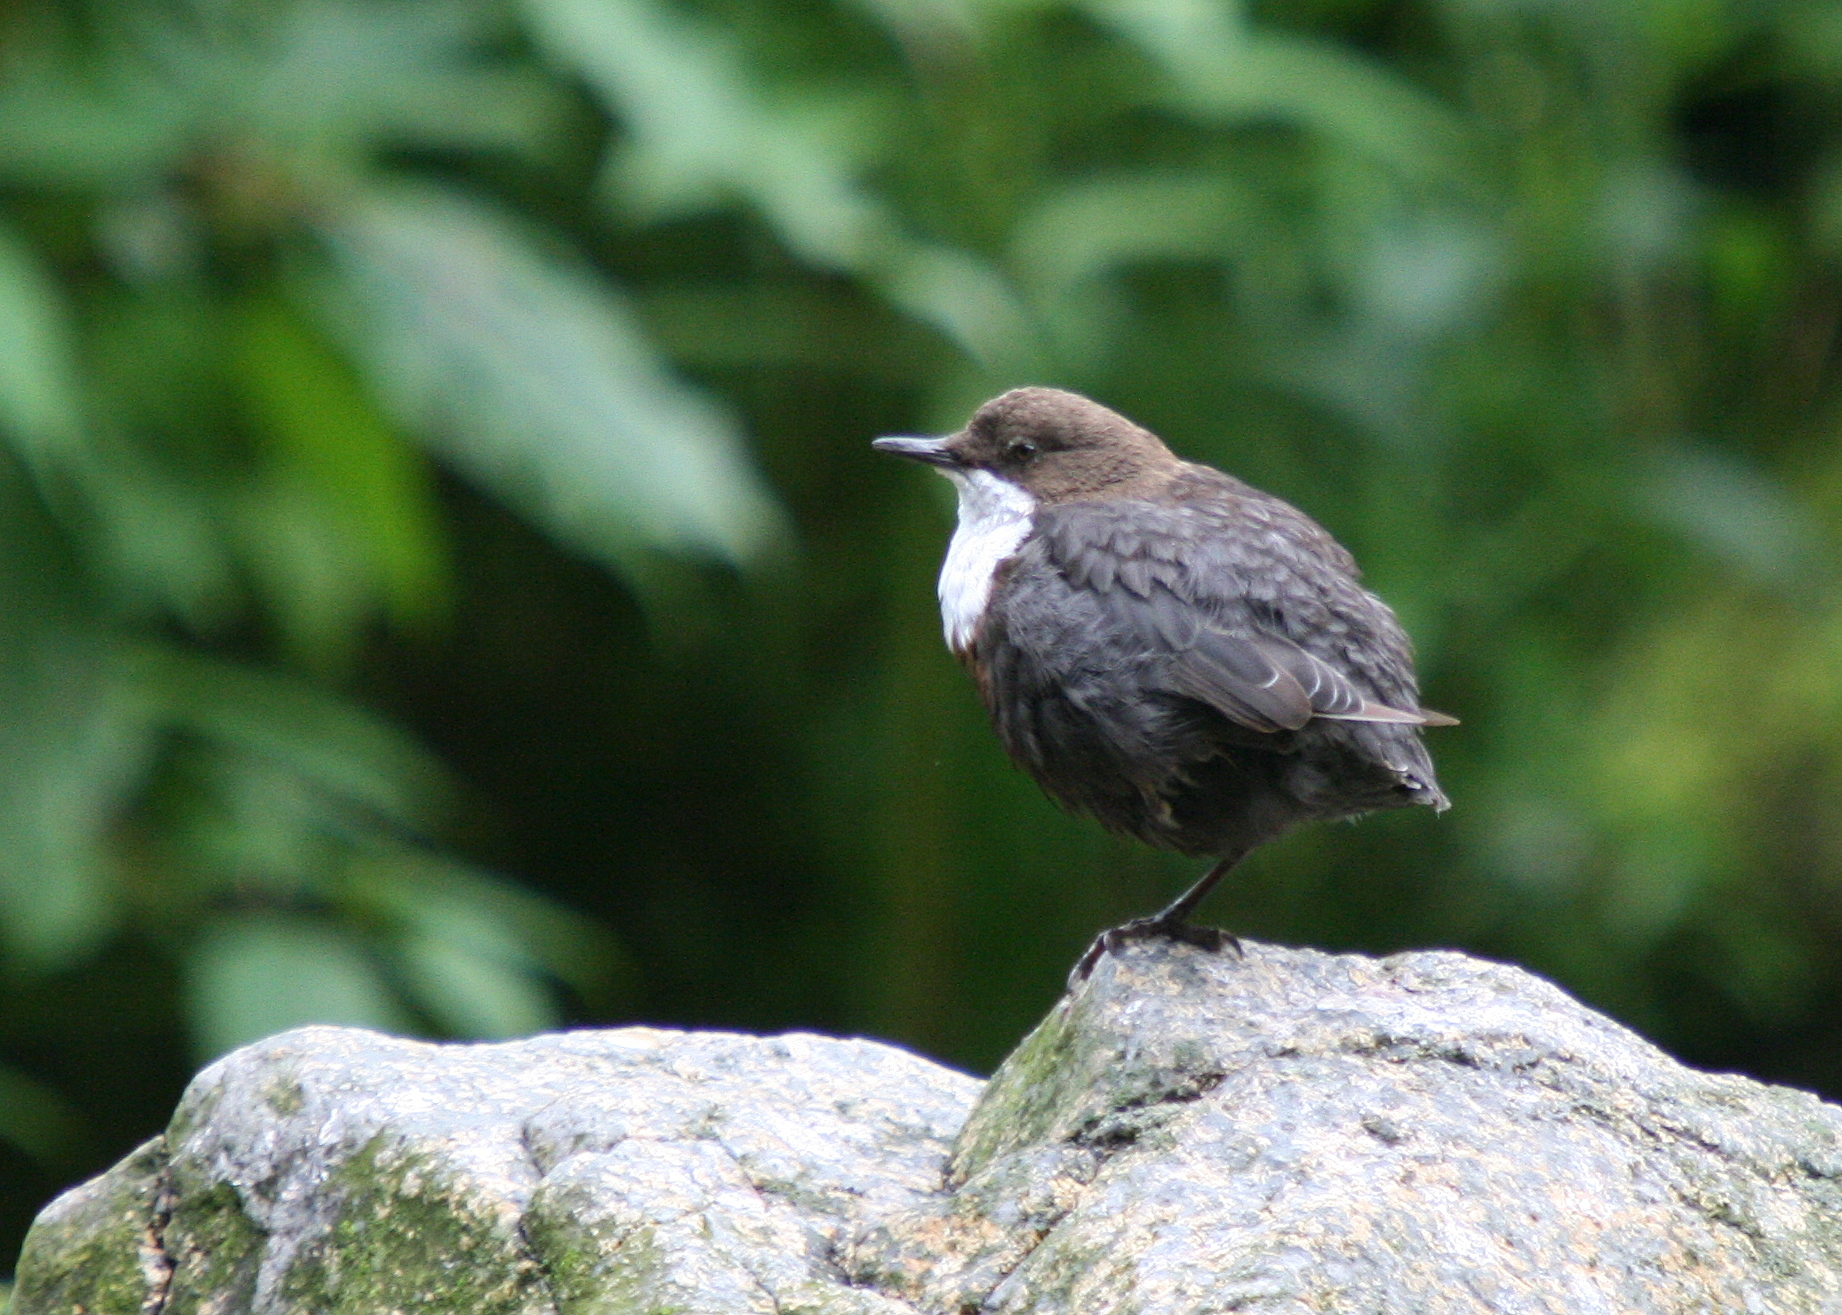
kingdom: Animalia
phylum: Chordata
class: Aves
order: Passeriformes
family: Cinclidae
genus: Cinclus
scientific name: Cinclus cinclus
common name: White-throated dipper
